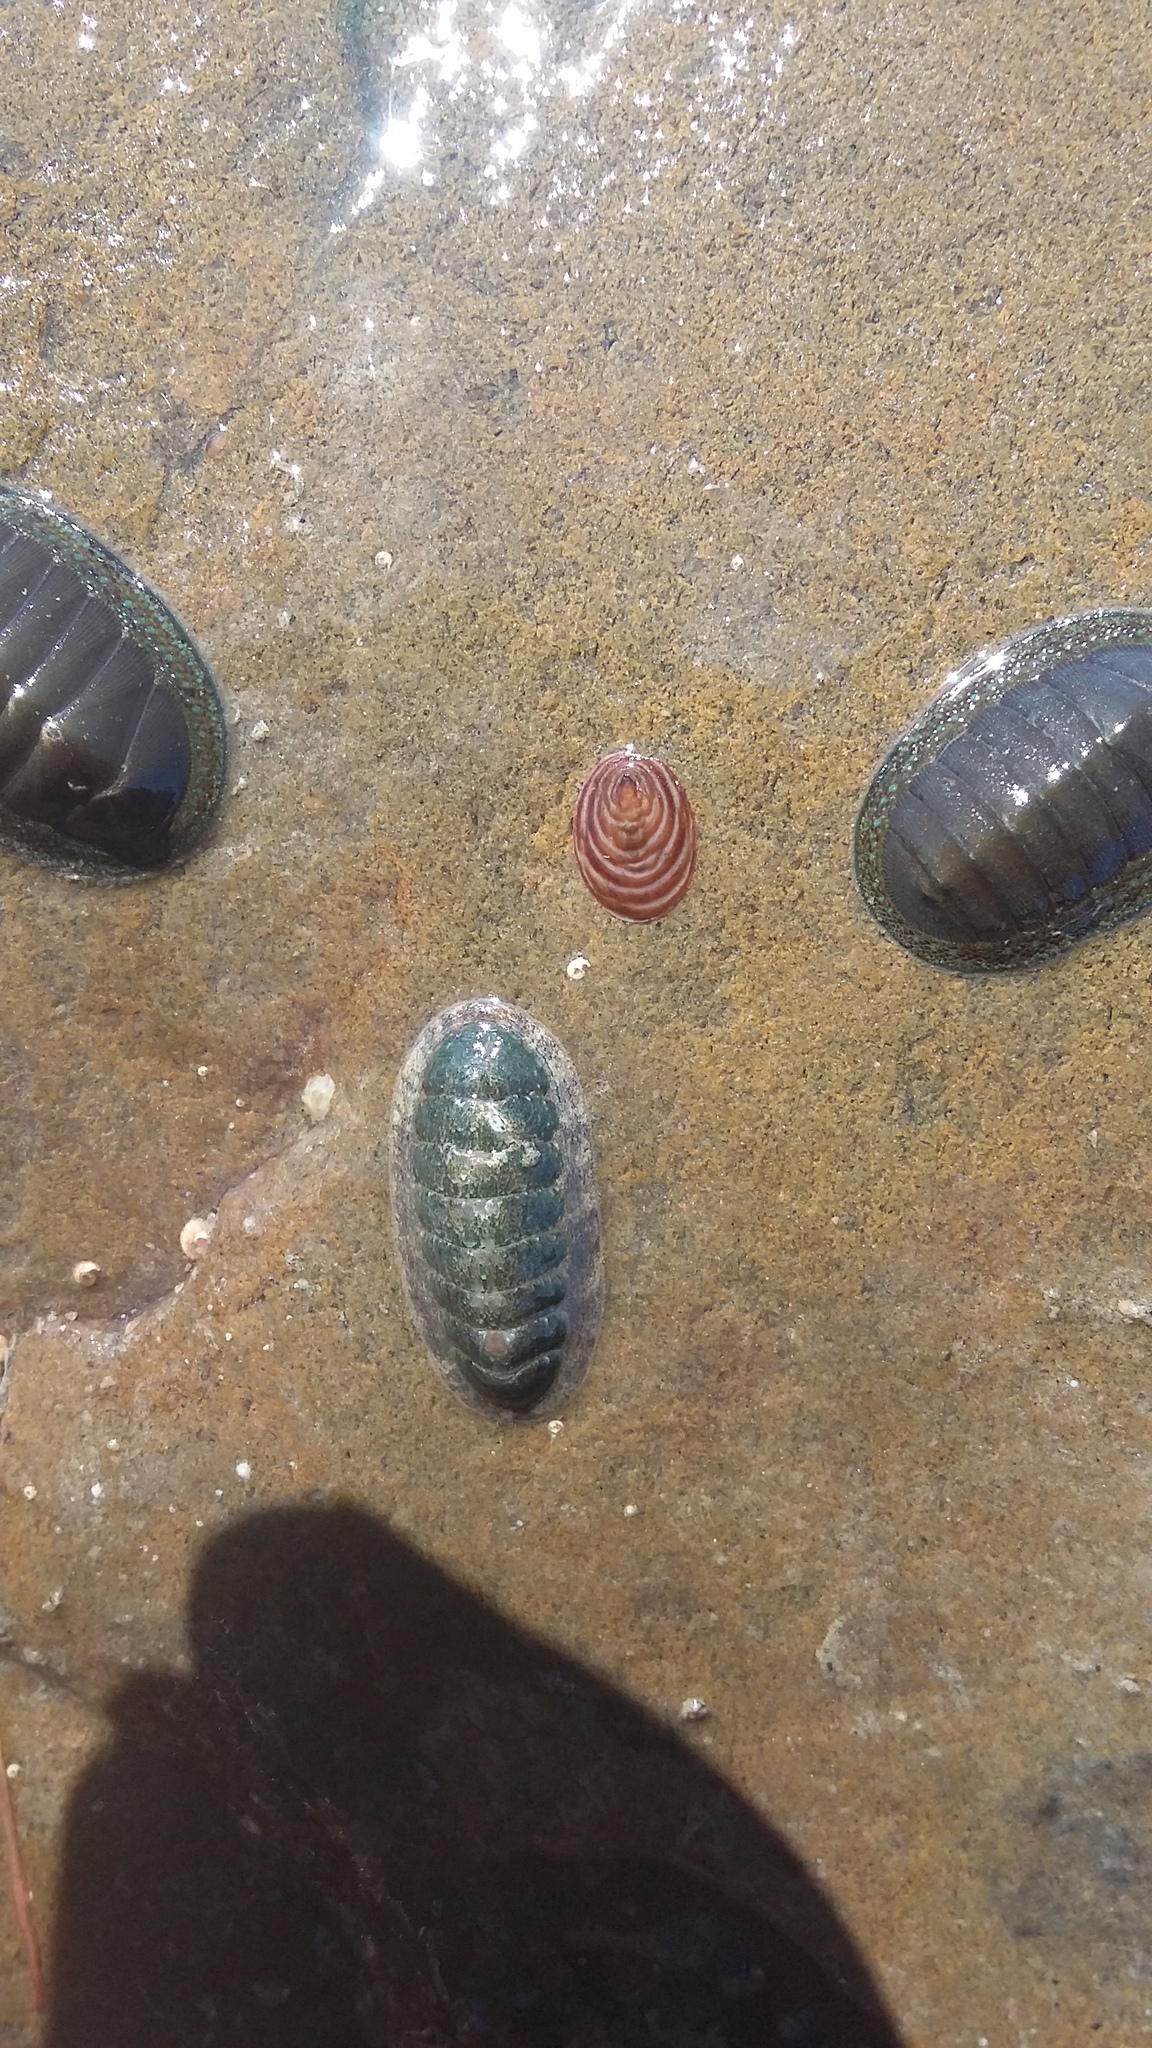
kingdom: Animalia
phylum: Mollusca
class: Gastropoda
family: Lottiidae
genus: Atalacmea
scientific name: Atalacmea fragilis
